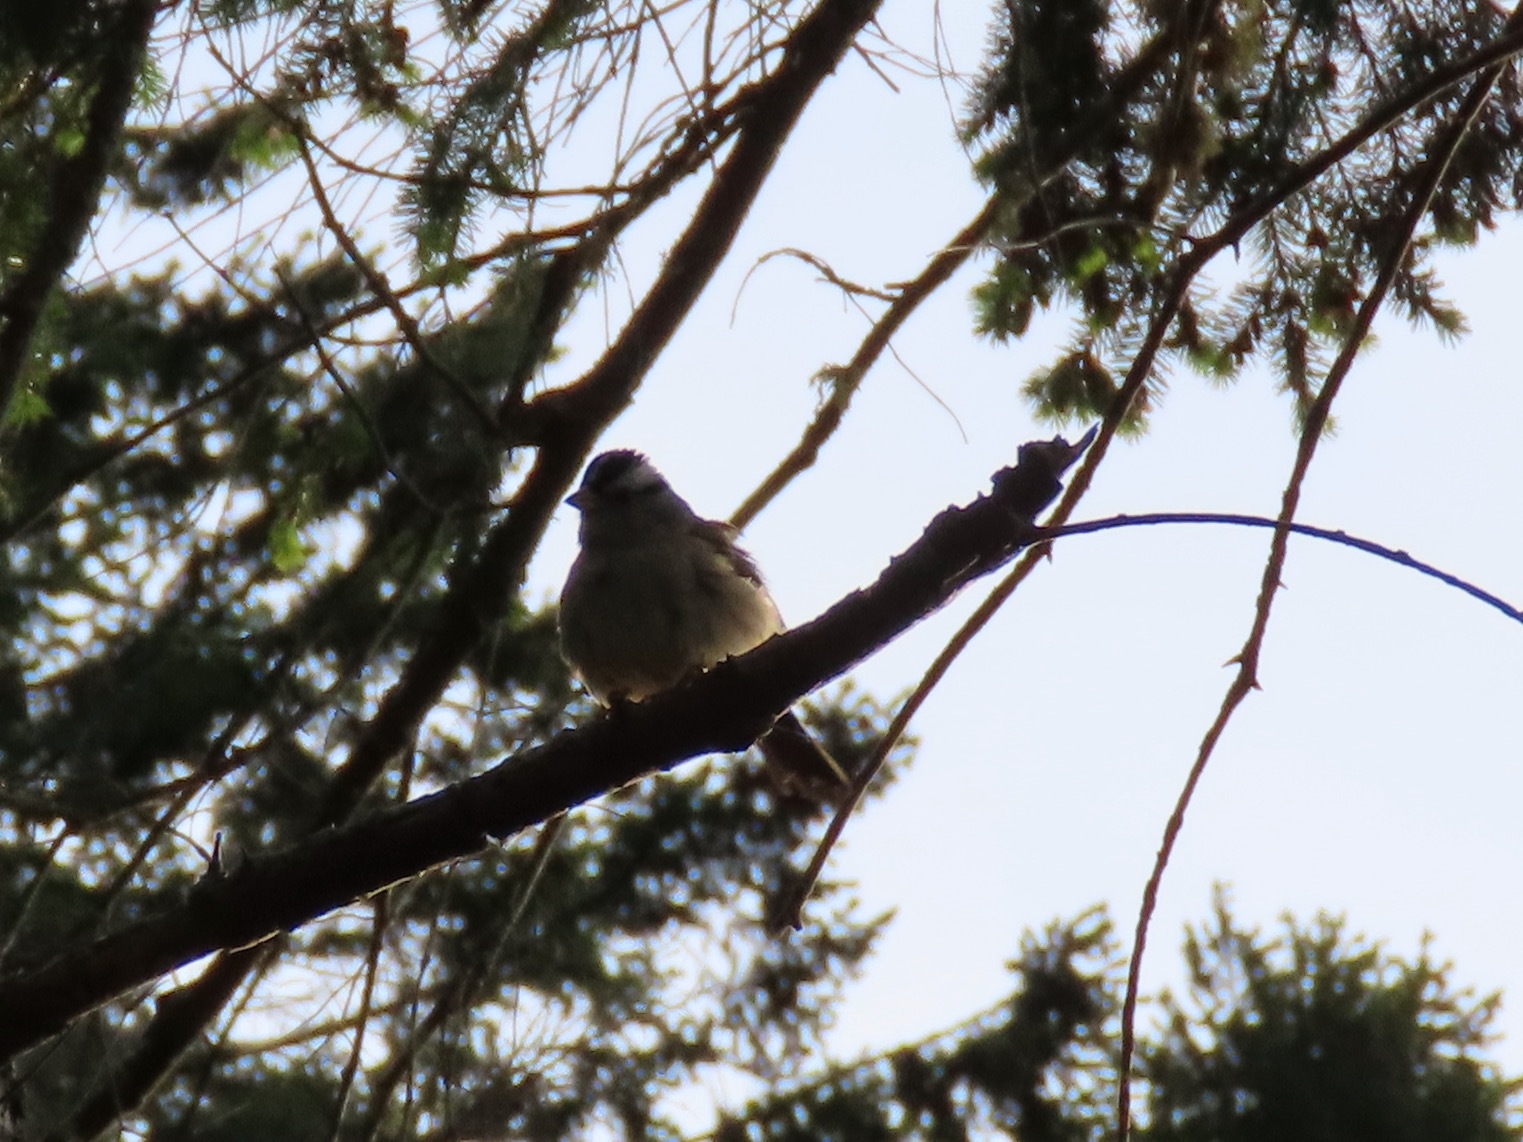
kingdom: Animalia
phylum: Chordata
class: Aves
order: Passeriformes
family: Passerellidae
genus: Zonotrichia
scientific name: Zonotrichia leucophrys
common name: White-crowned sparrow
